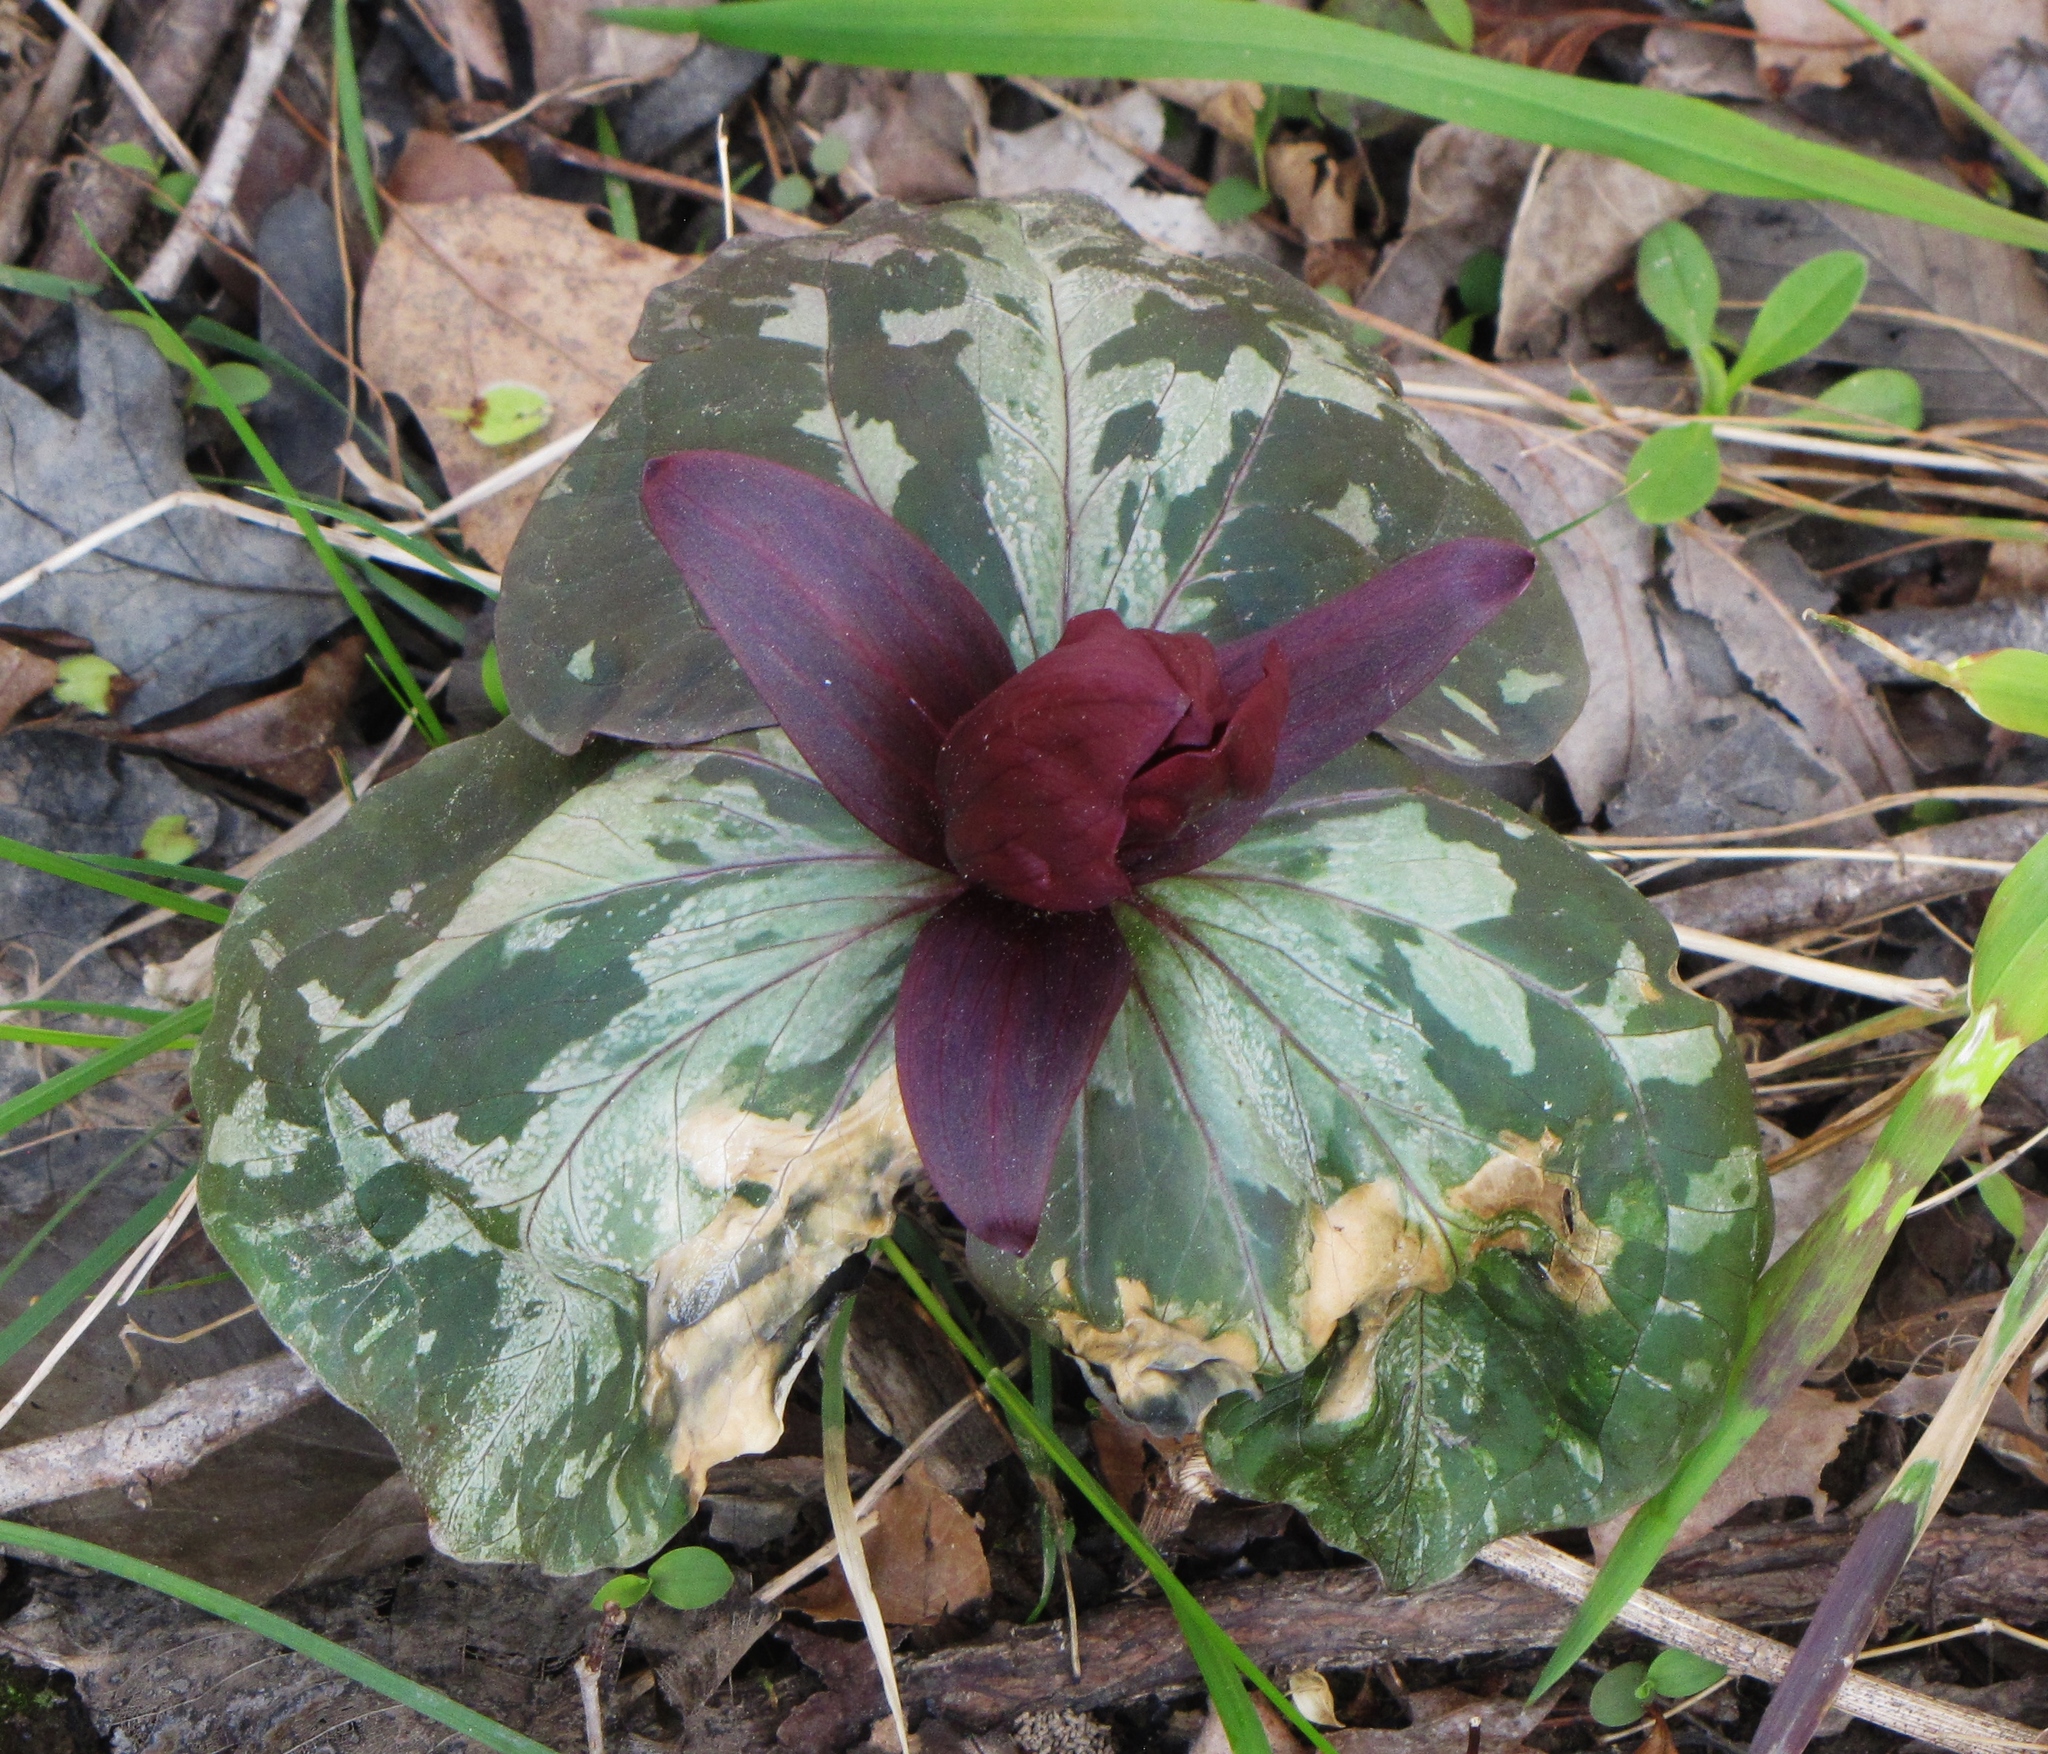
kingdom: Plantae
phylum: Tracheophyta
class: Liliopsida
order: Liliales
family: Melanthiaceae
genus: Trillium
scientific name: Trillium cuneatum
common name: Cuneate trillium
